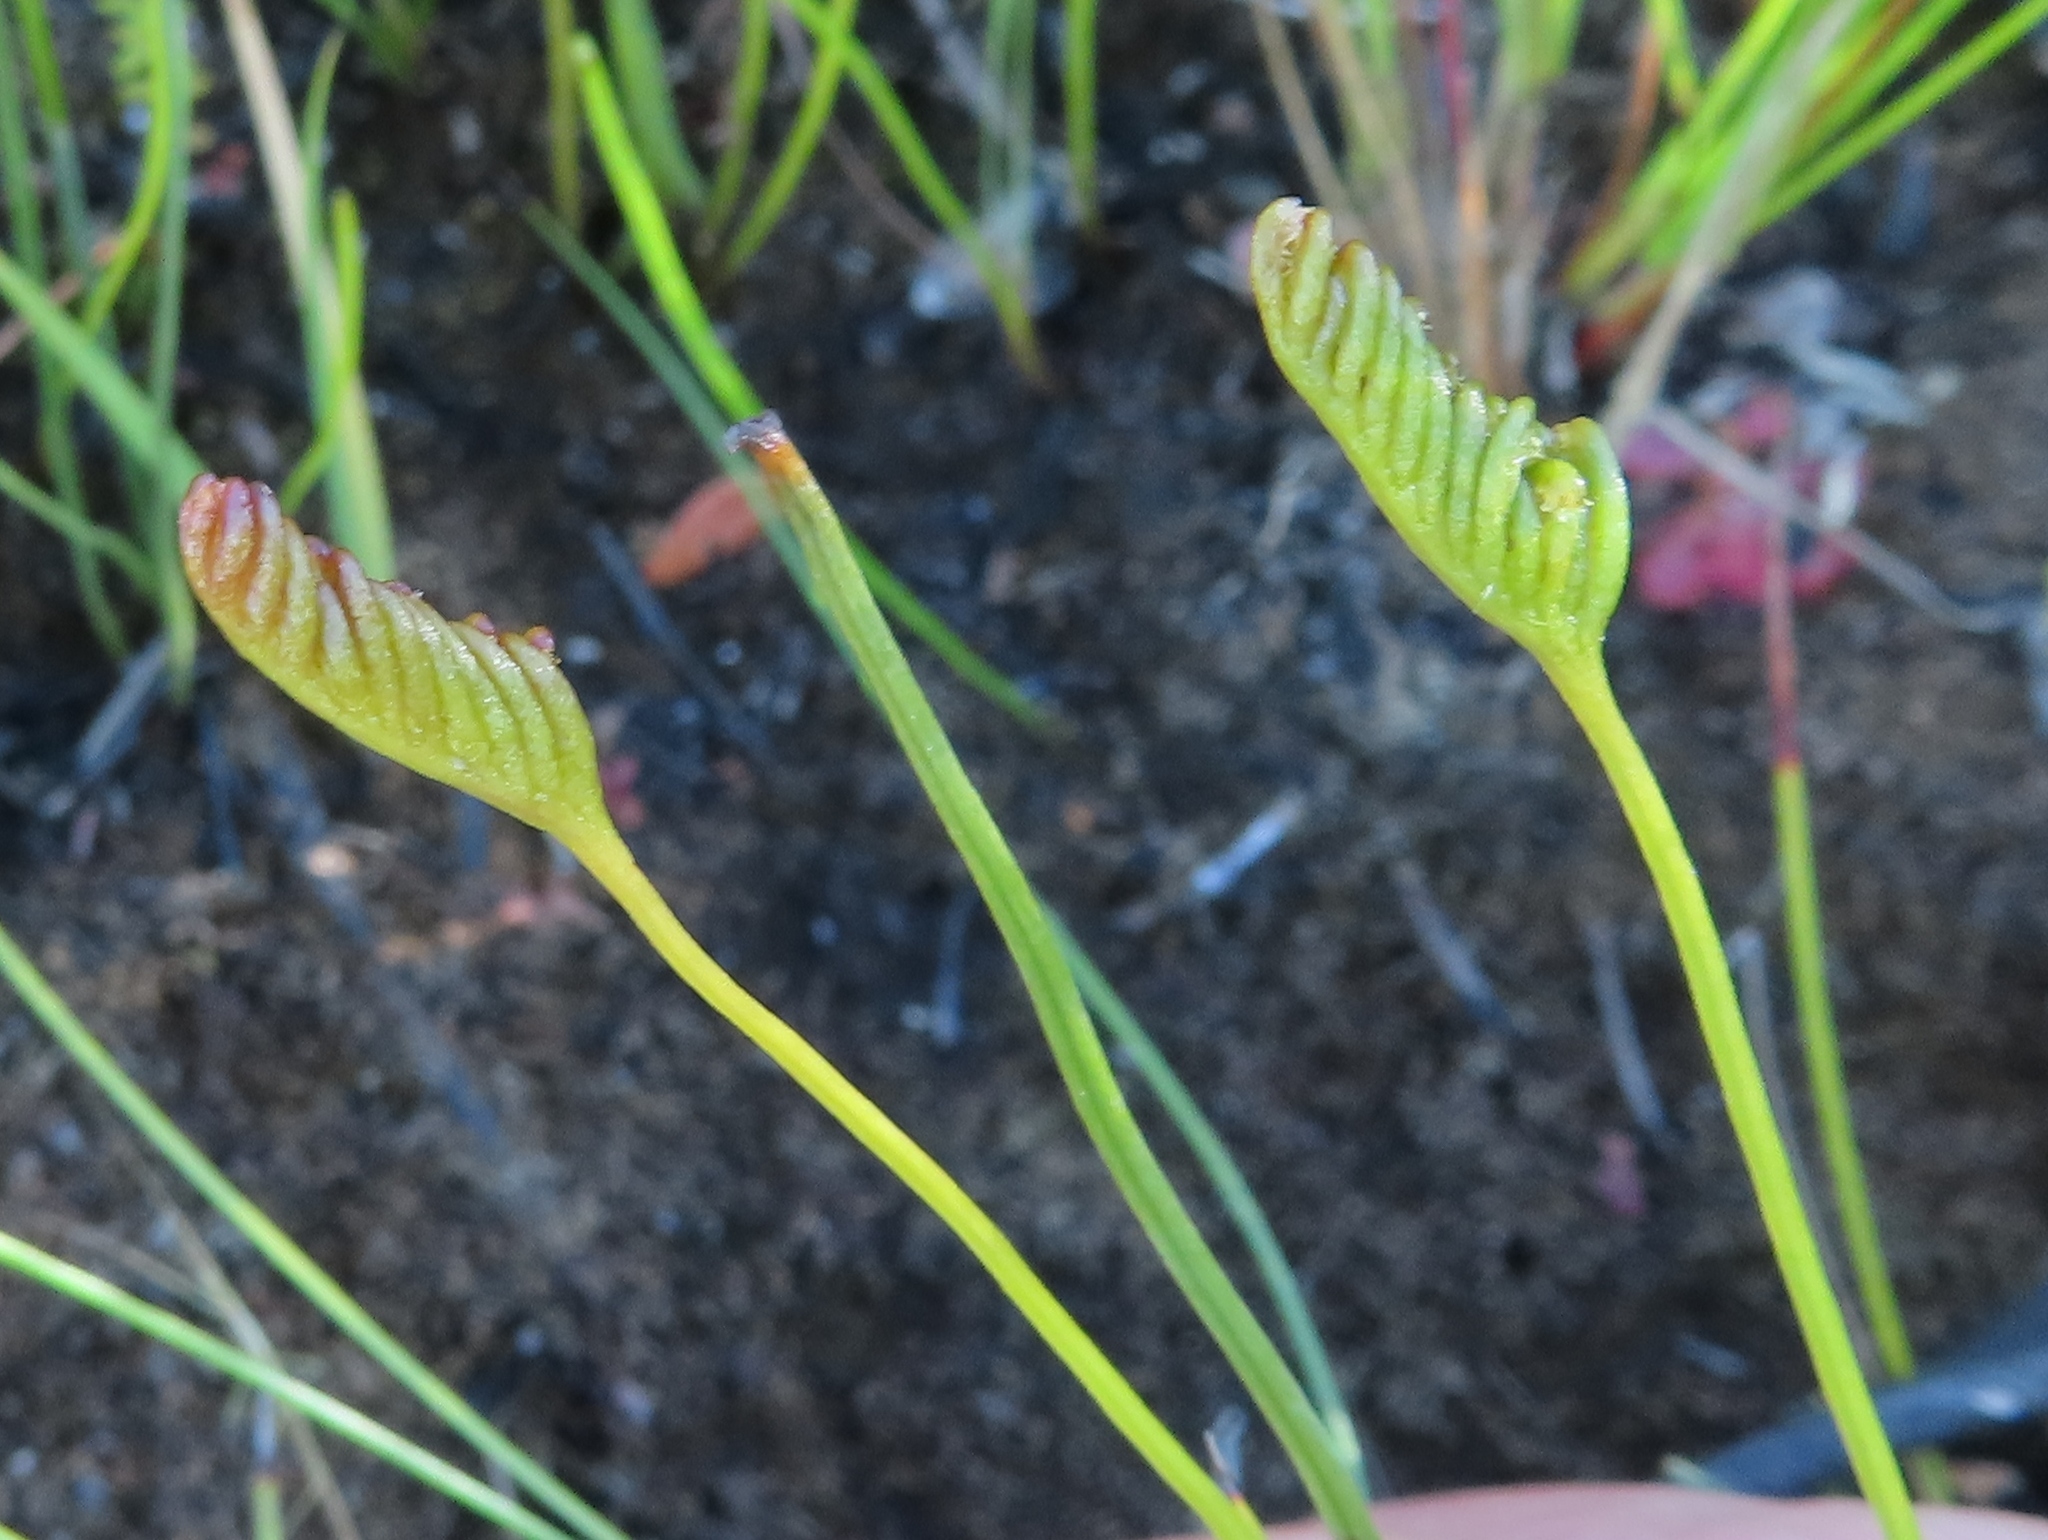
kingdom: Plantae
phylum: Tracheophyta
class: Polypodiopsida
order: Schizaeales
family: Schizaeaceae
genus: Microschizaea
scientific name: Microschizaea tenella
